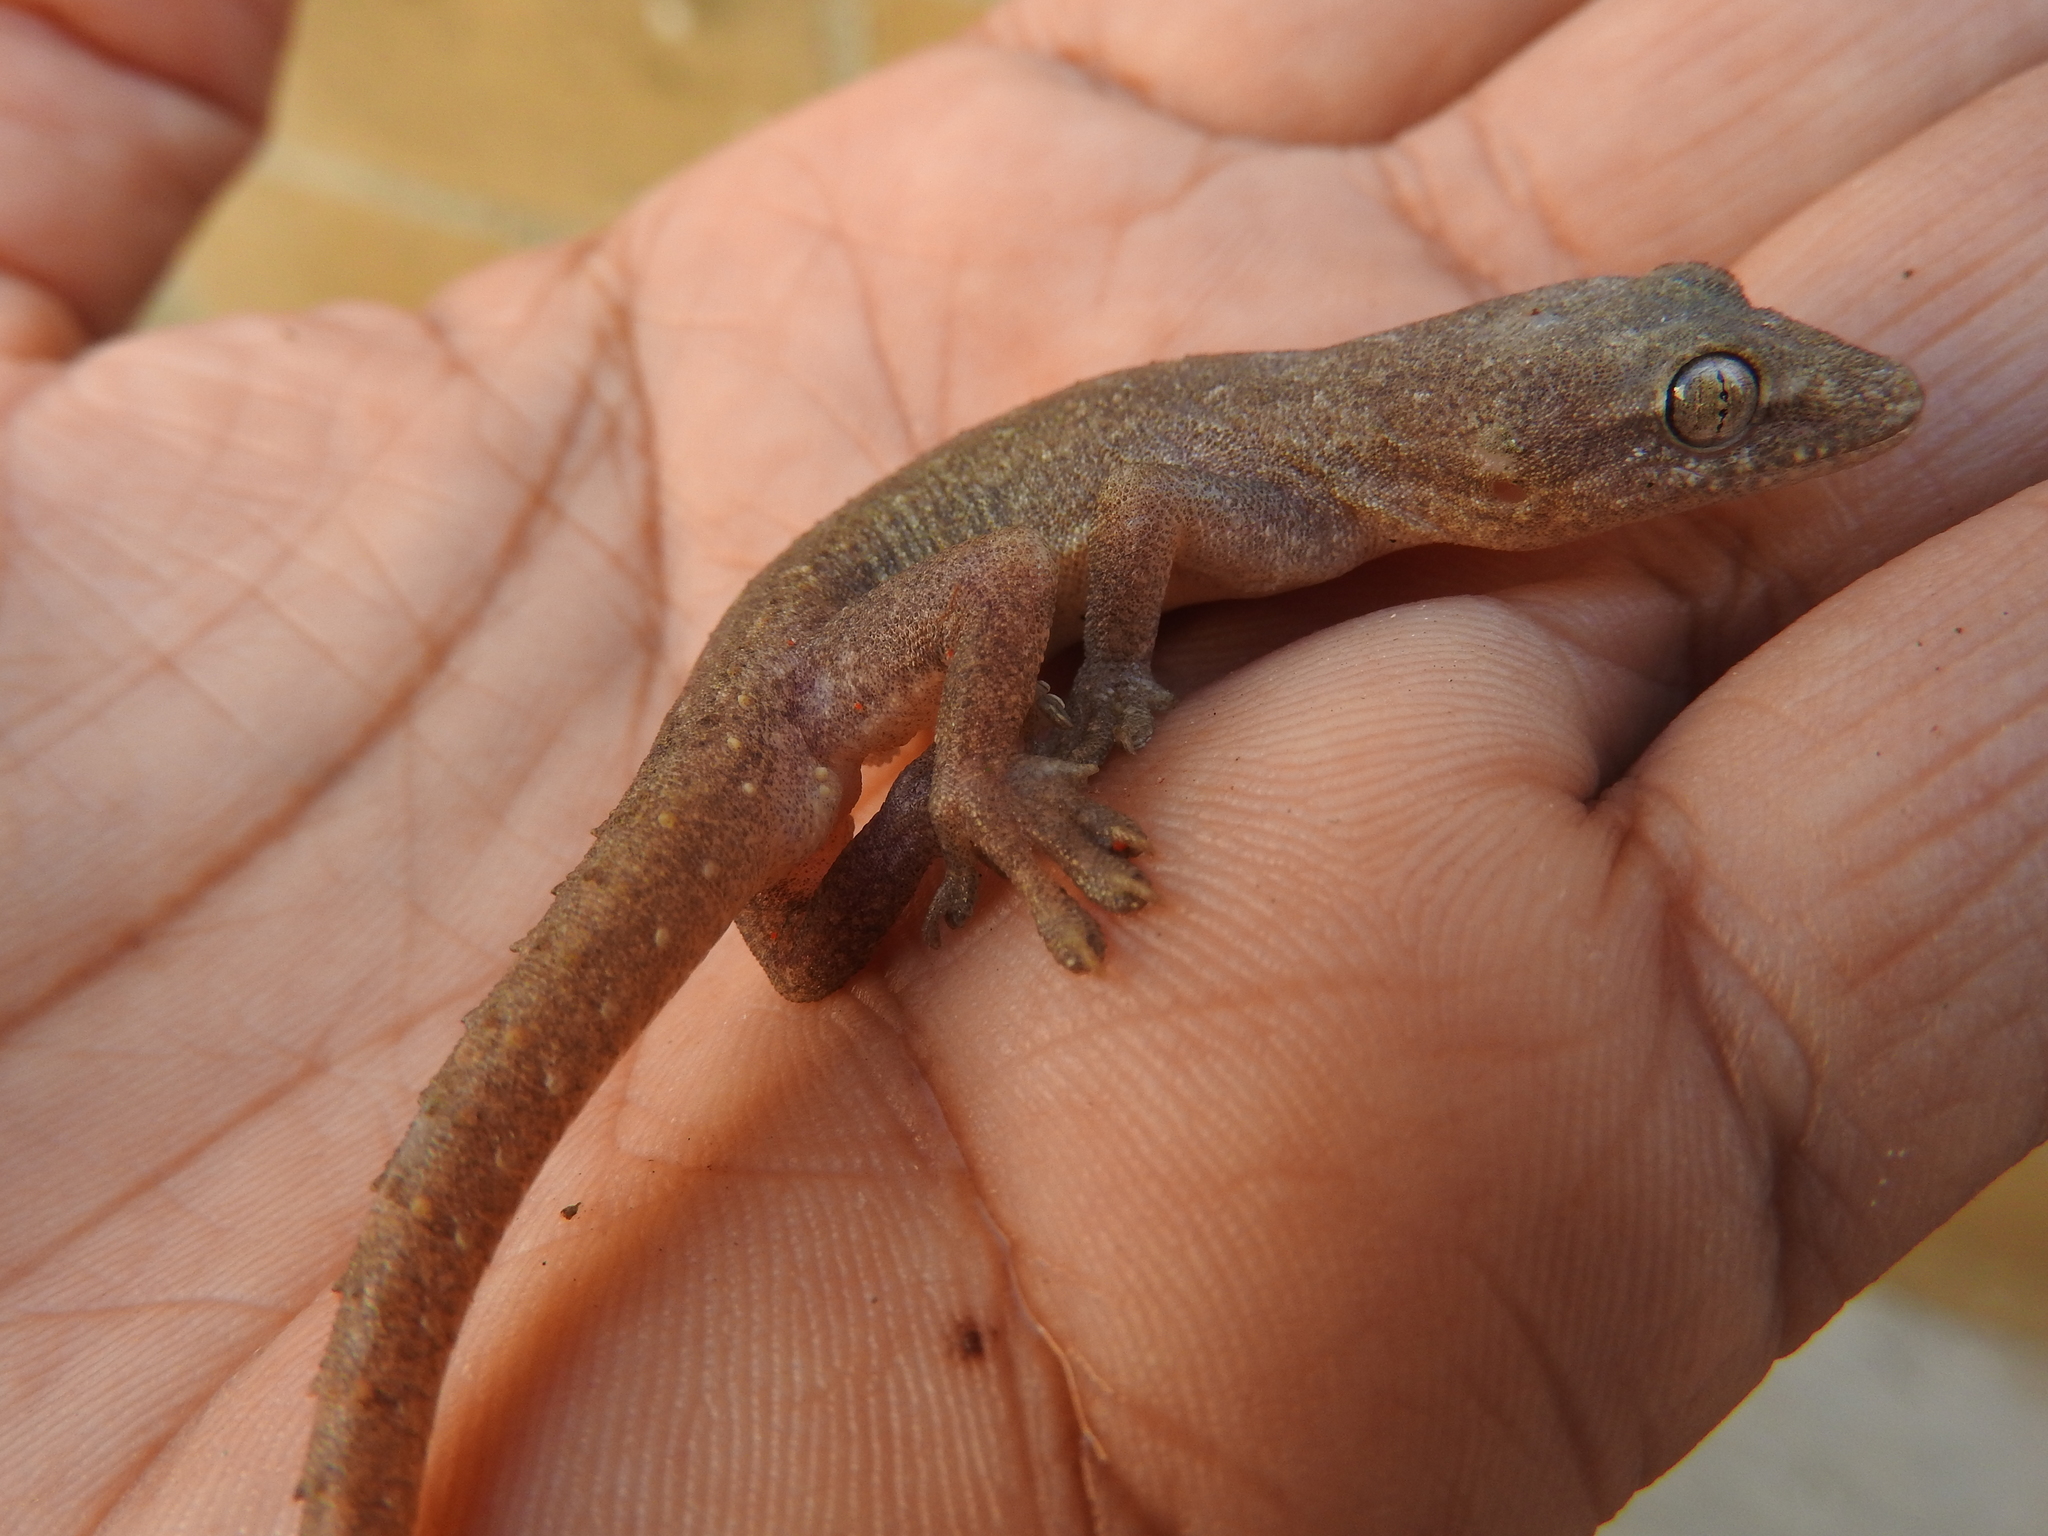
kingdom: Animalia
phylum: Chordata
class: Squamata
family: Gekkonidae
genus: Hemidactylus
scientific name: Hemidactylus frenatus
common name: Common house gecko
